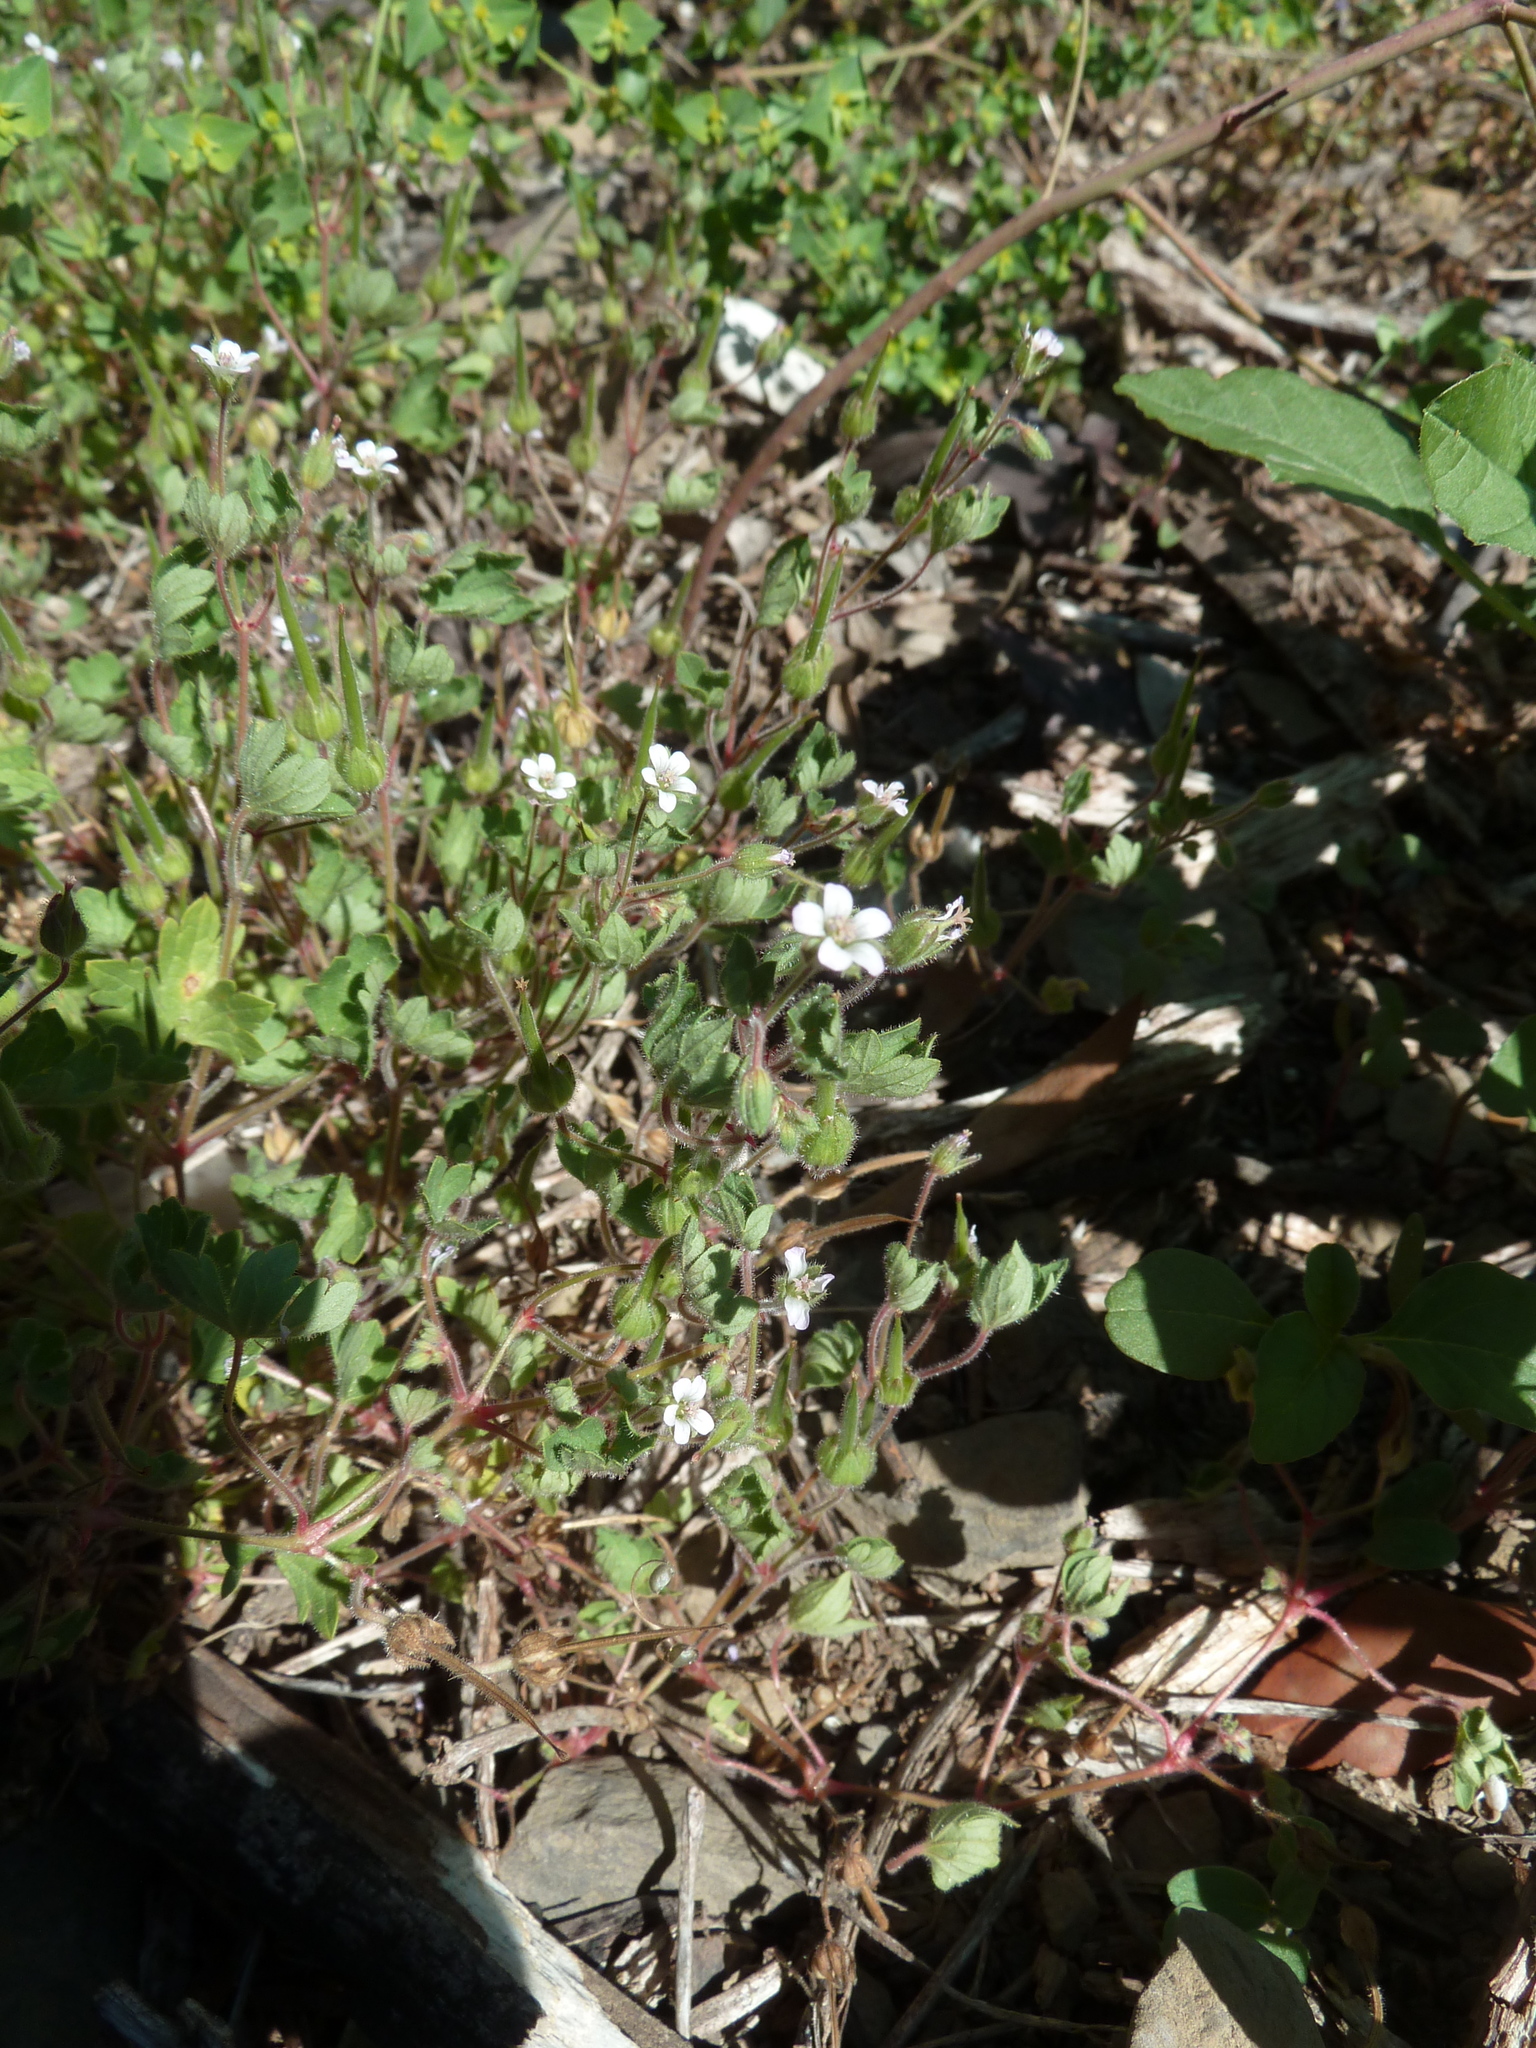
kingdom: Plantae
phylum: Tracheophyta
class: Magnoliopsida
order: Geraniales
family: Geraniaceae
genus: Geranium
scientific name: Geranium rotundifolium
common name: Round-leaved crane's-bill
